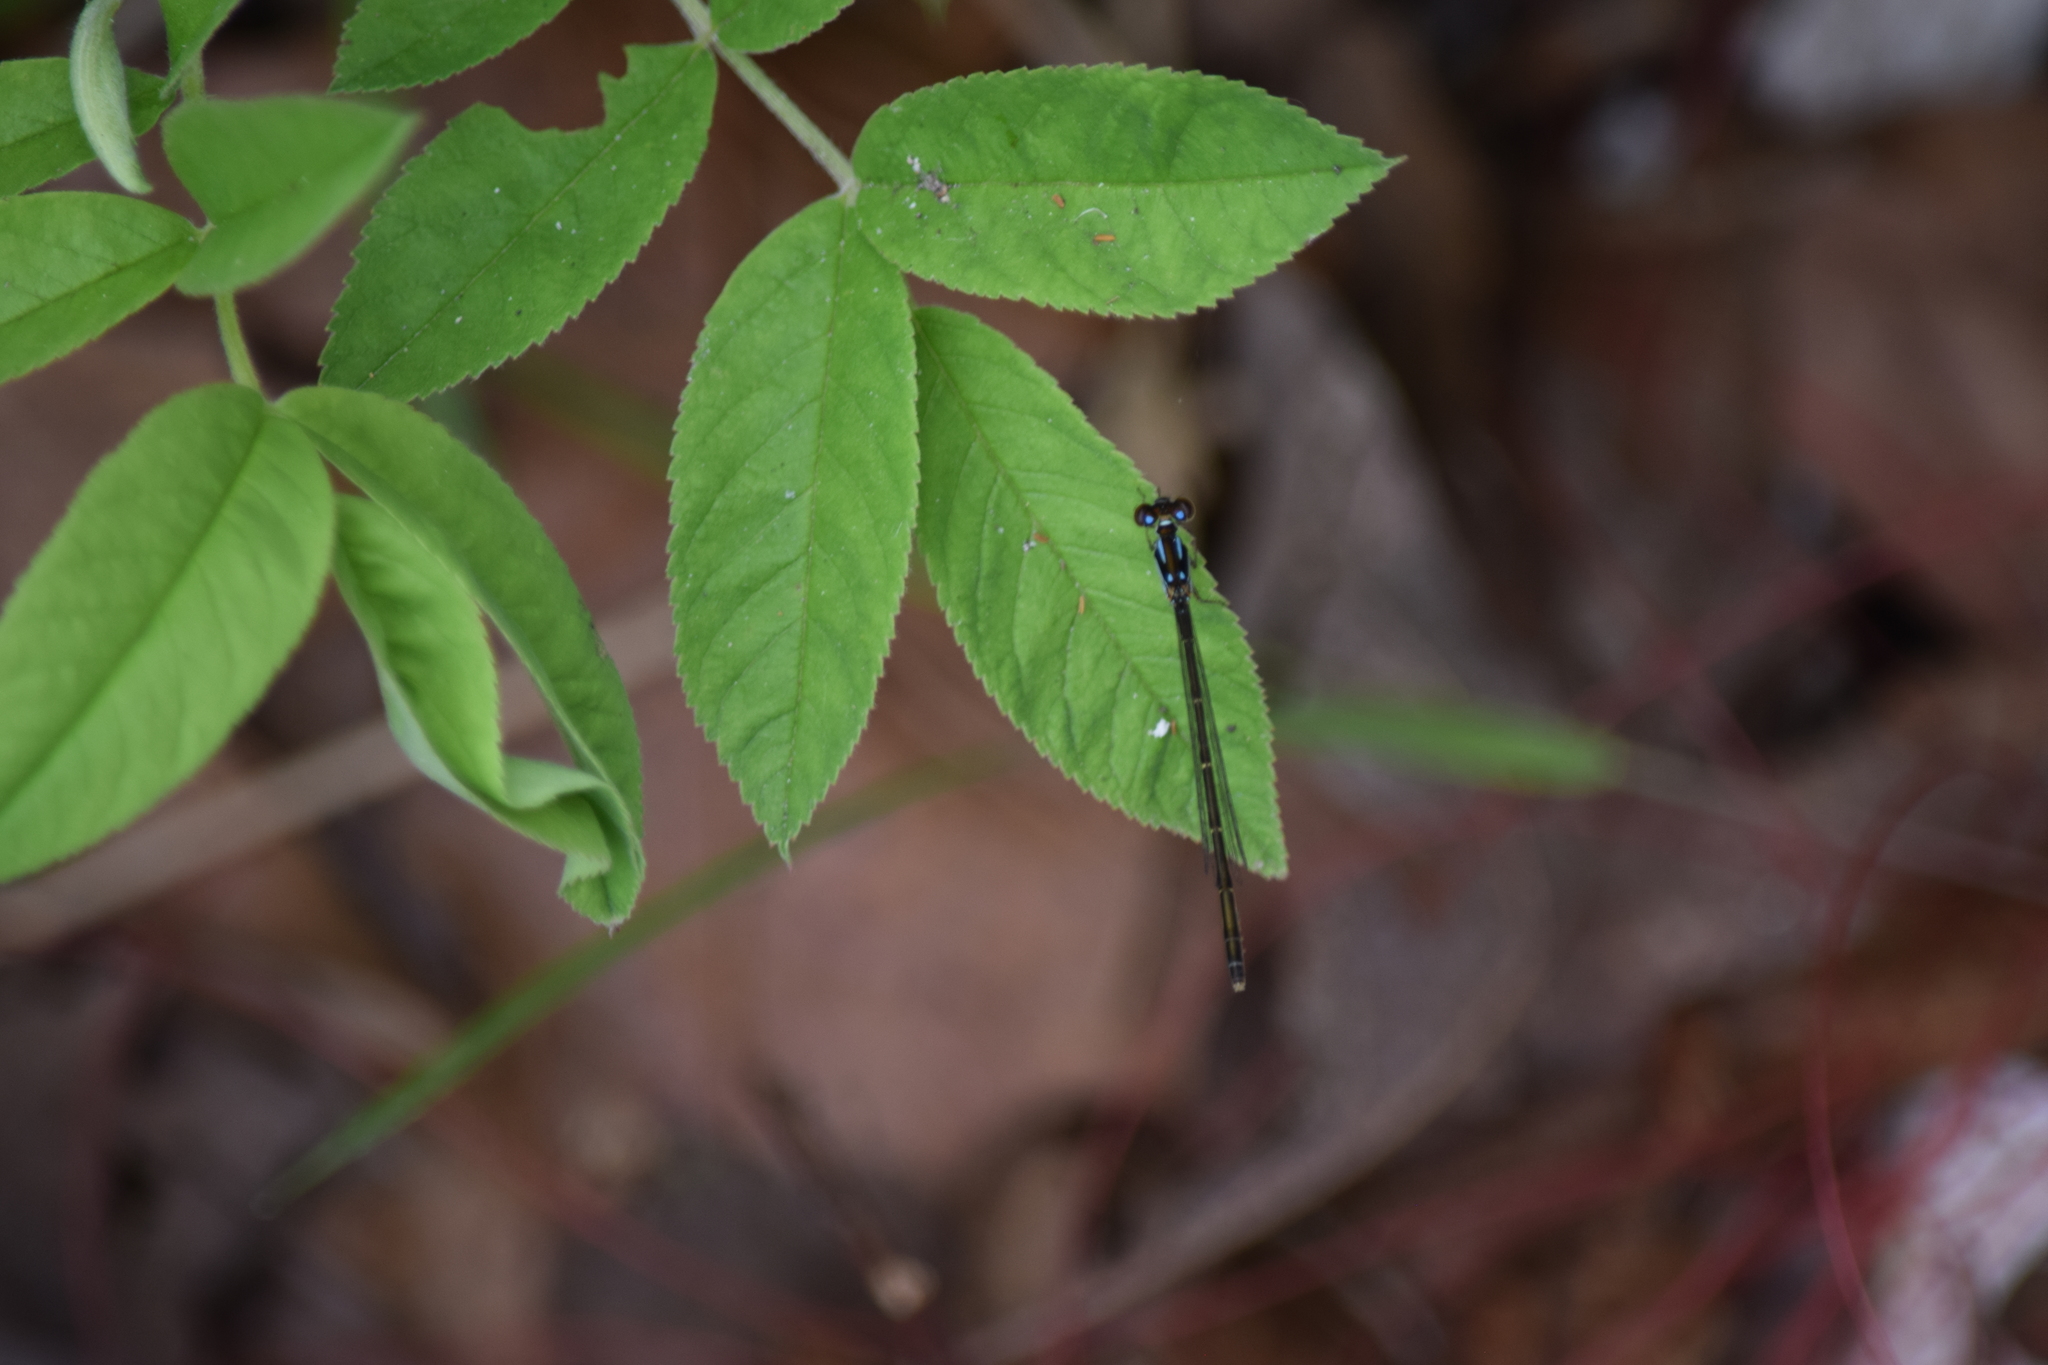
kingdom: Animalia
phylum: Arthropoda
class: Insecta
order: Odonata
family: Coenagrionidae
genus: Ischnura
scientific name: Ischnura posita
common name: Fragile forktail
